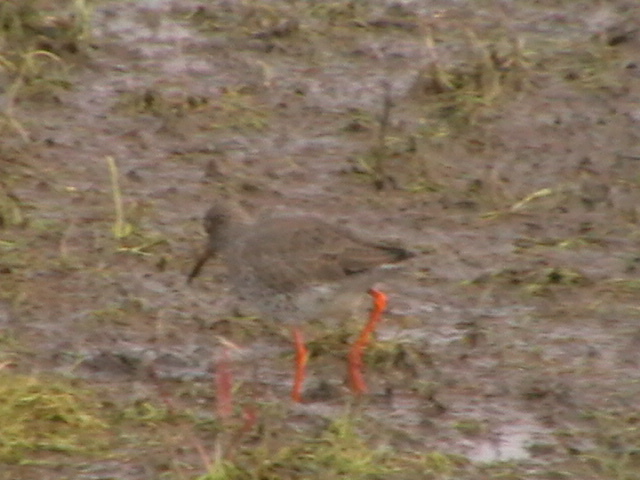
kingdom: Animalia
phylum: Chordata
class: Aves
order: Charadriiformes
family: Scolopacidae
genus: Tringa
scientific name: Tringa totanus
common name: Common redshank
